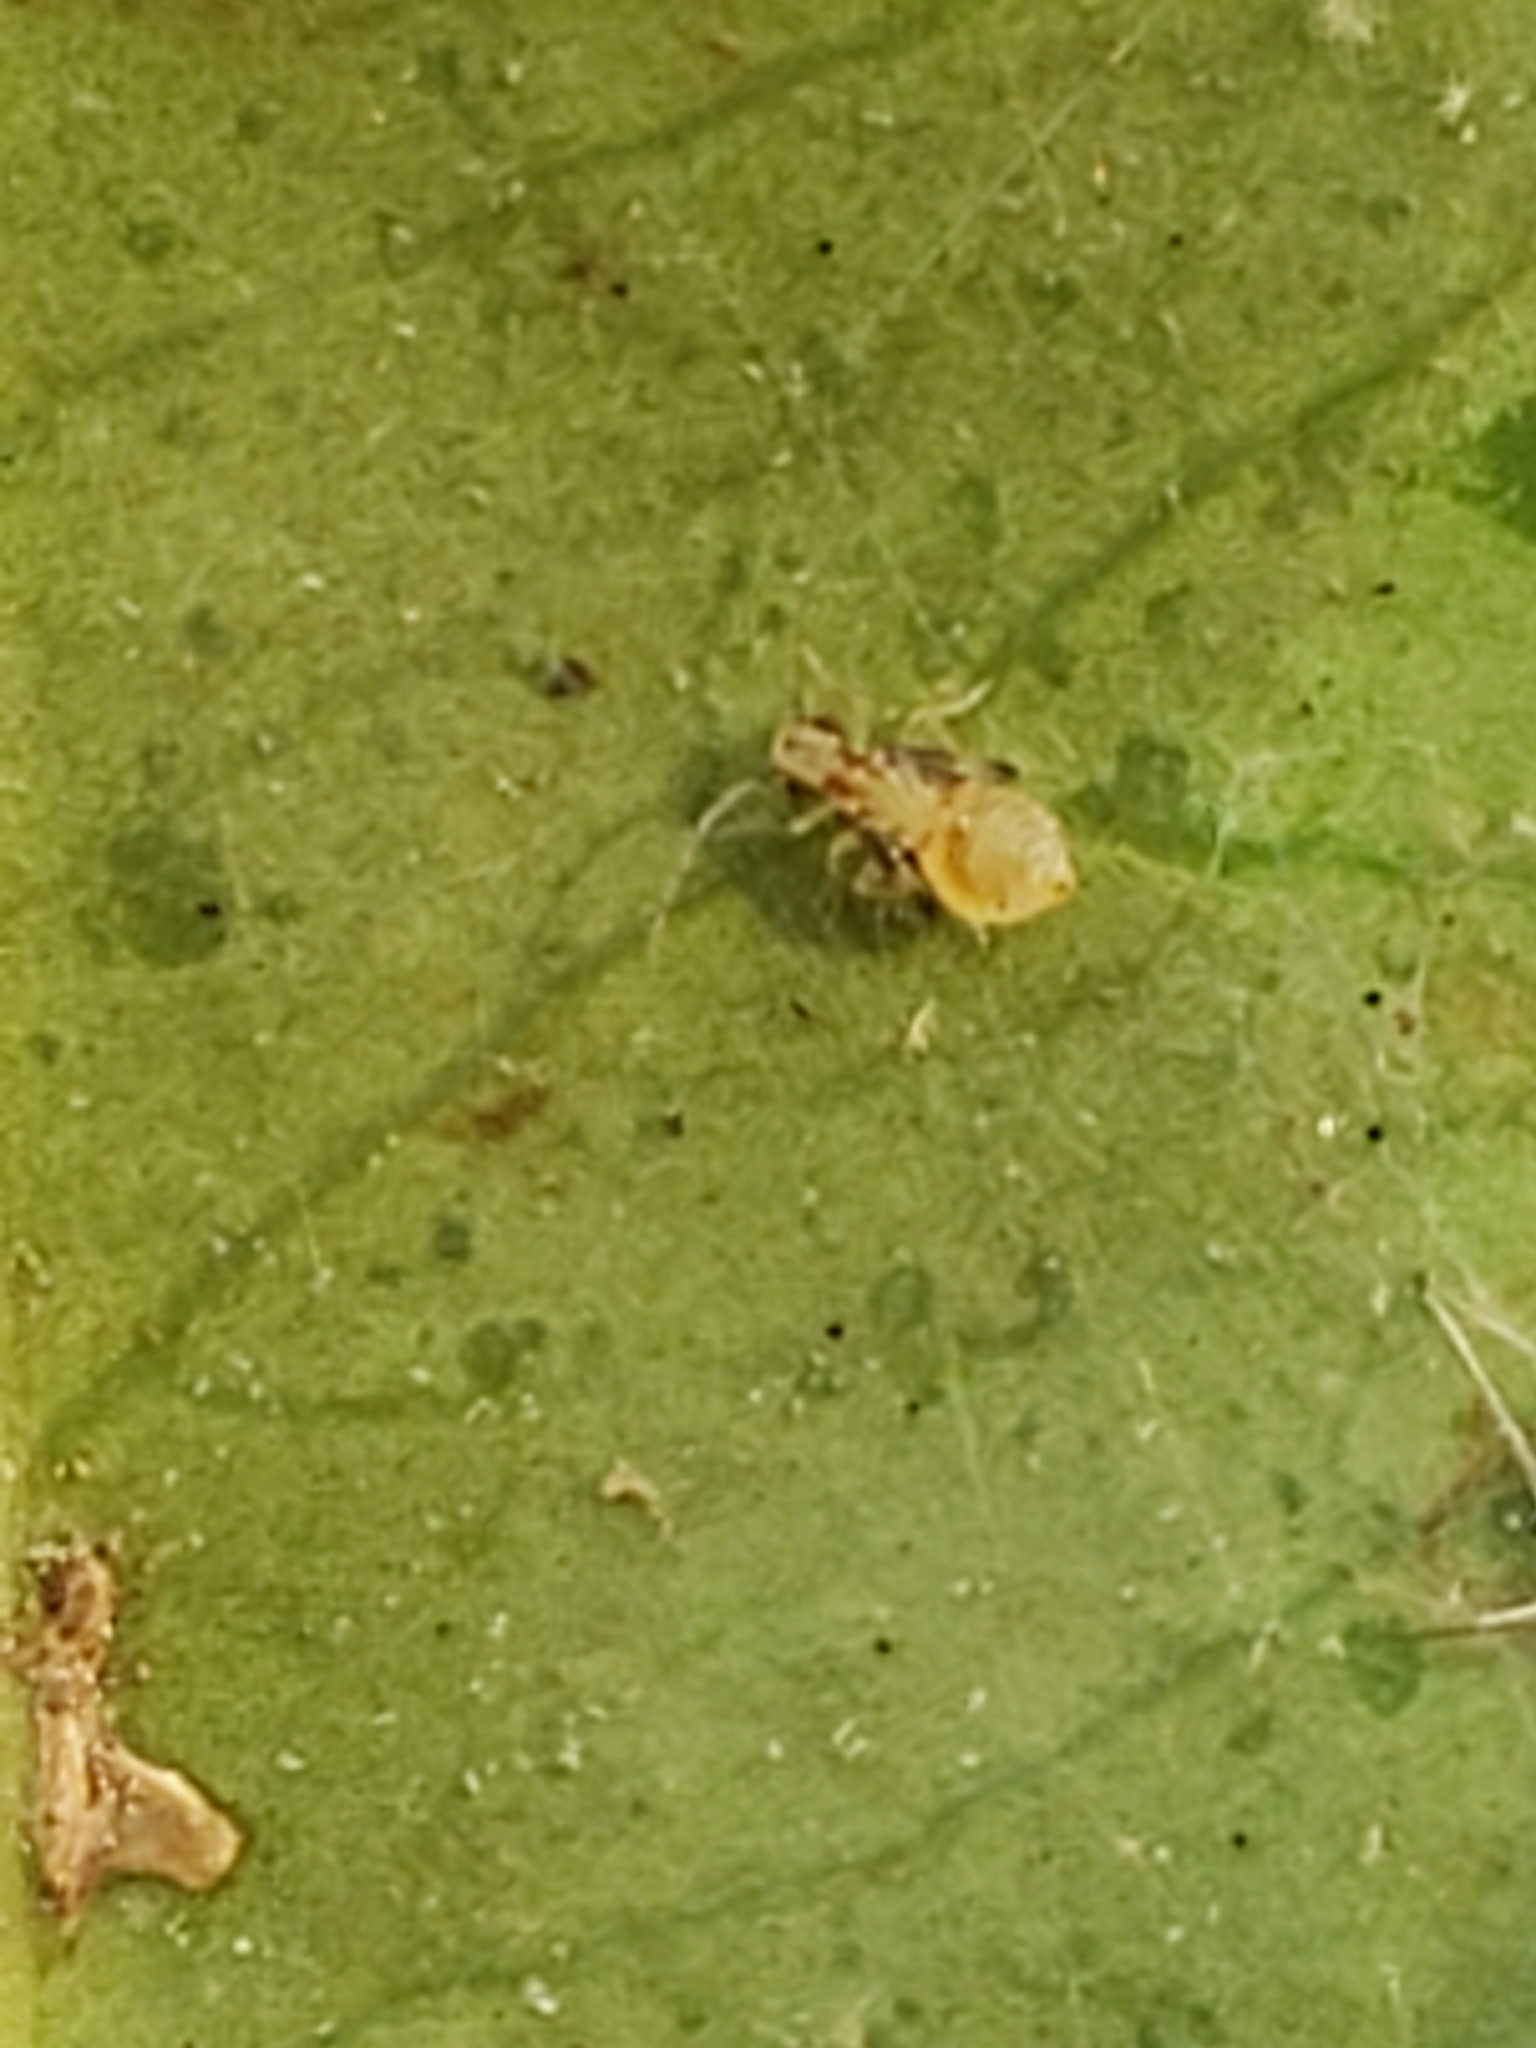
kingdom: Animalia
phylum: Arthropoda
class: Insecta
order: Psocodea
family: Amphipsocidae
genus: Polypsocus
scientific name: Polypsocus corruptus
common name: Corrupt barklouse
